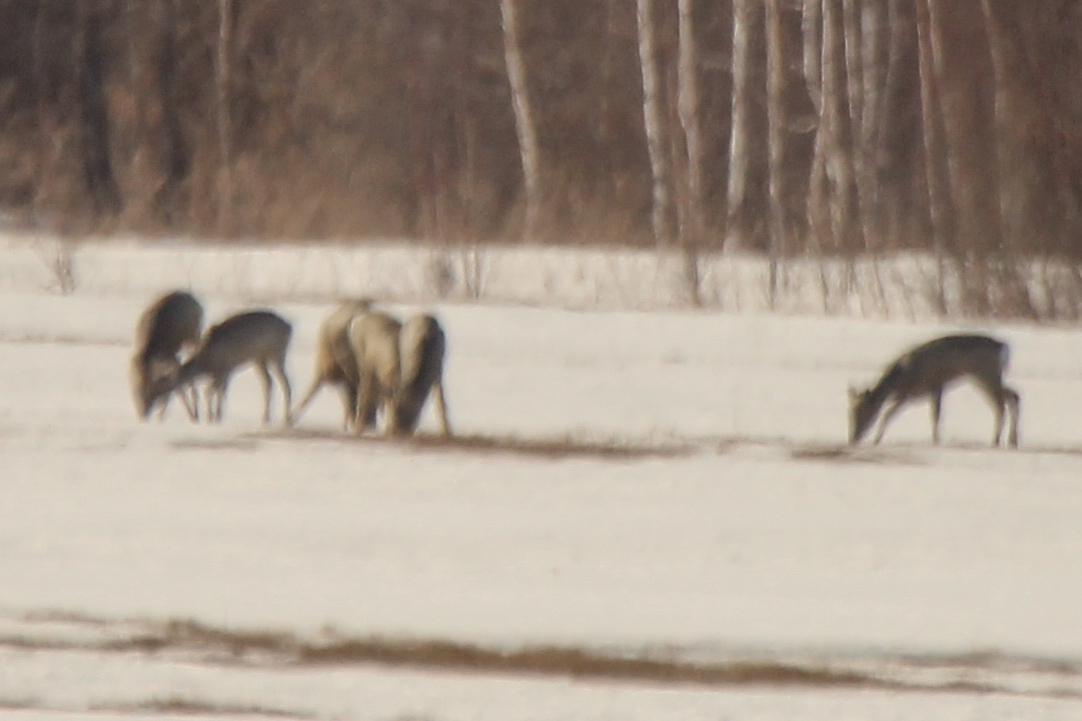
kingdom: Animalia
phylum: Chordata
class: Mammalia
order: Artiodactyla
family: Cervidae
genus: Capreolus
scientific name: Capreolus pygargus
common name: Siberian roe
